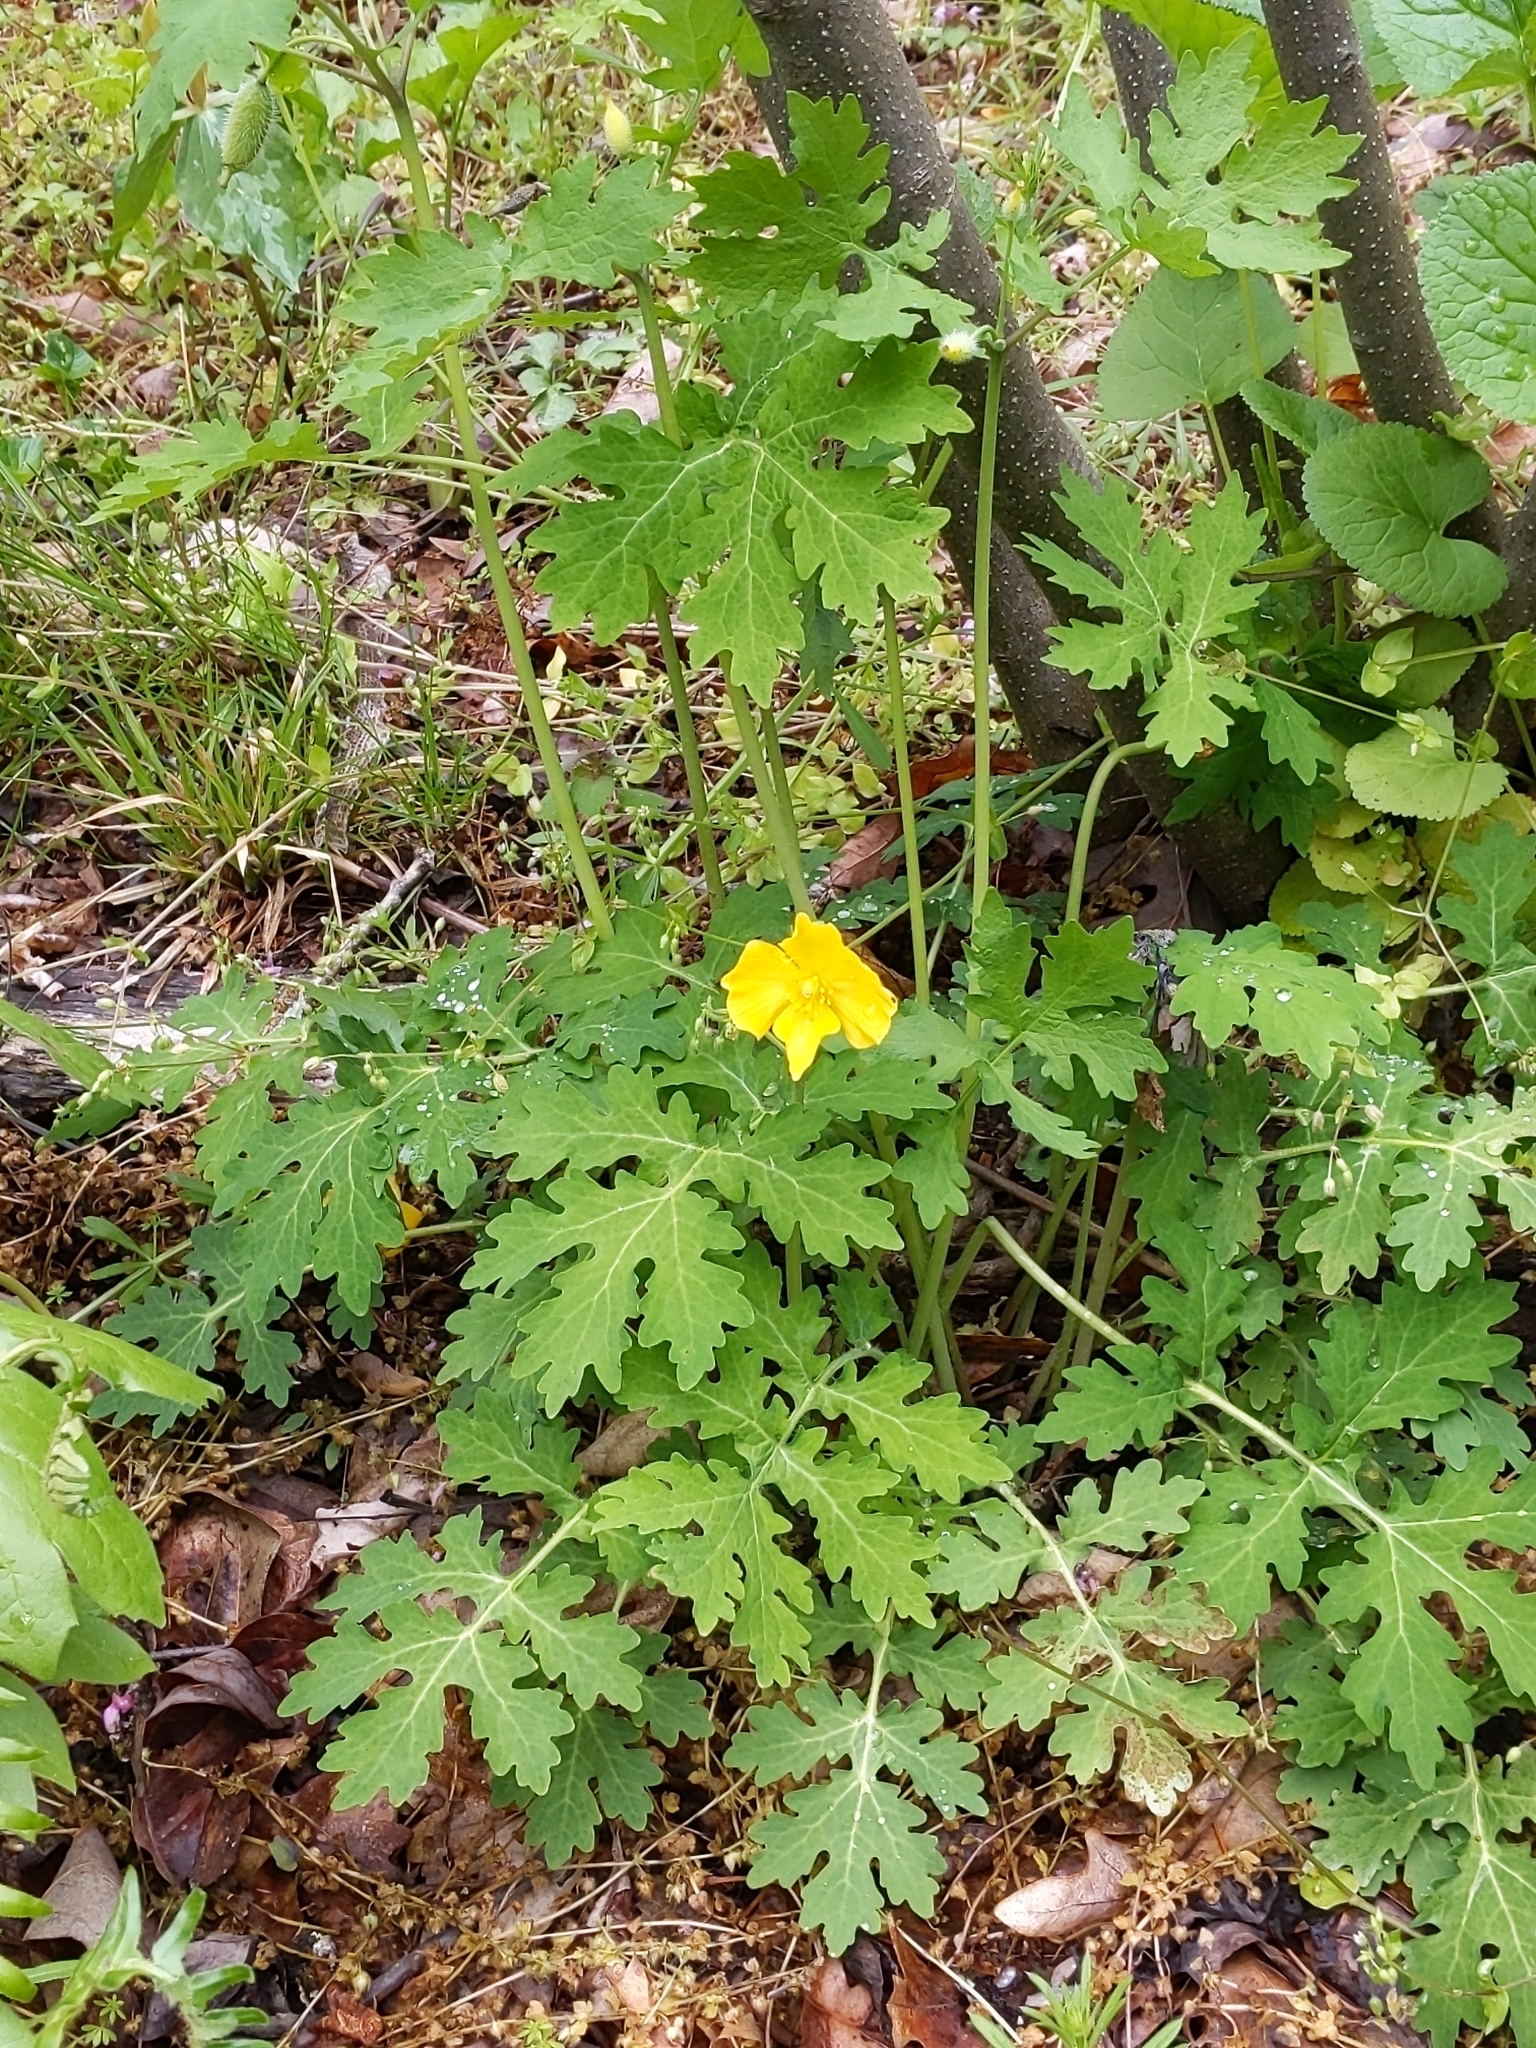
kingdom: Plantae
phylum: Tracheophyta
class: Magnoliopsida
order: Ranunculales
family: Papaveraceae
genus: Stylophorum
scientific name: Stylophorum diphyllum
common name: Celandine poppy
